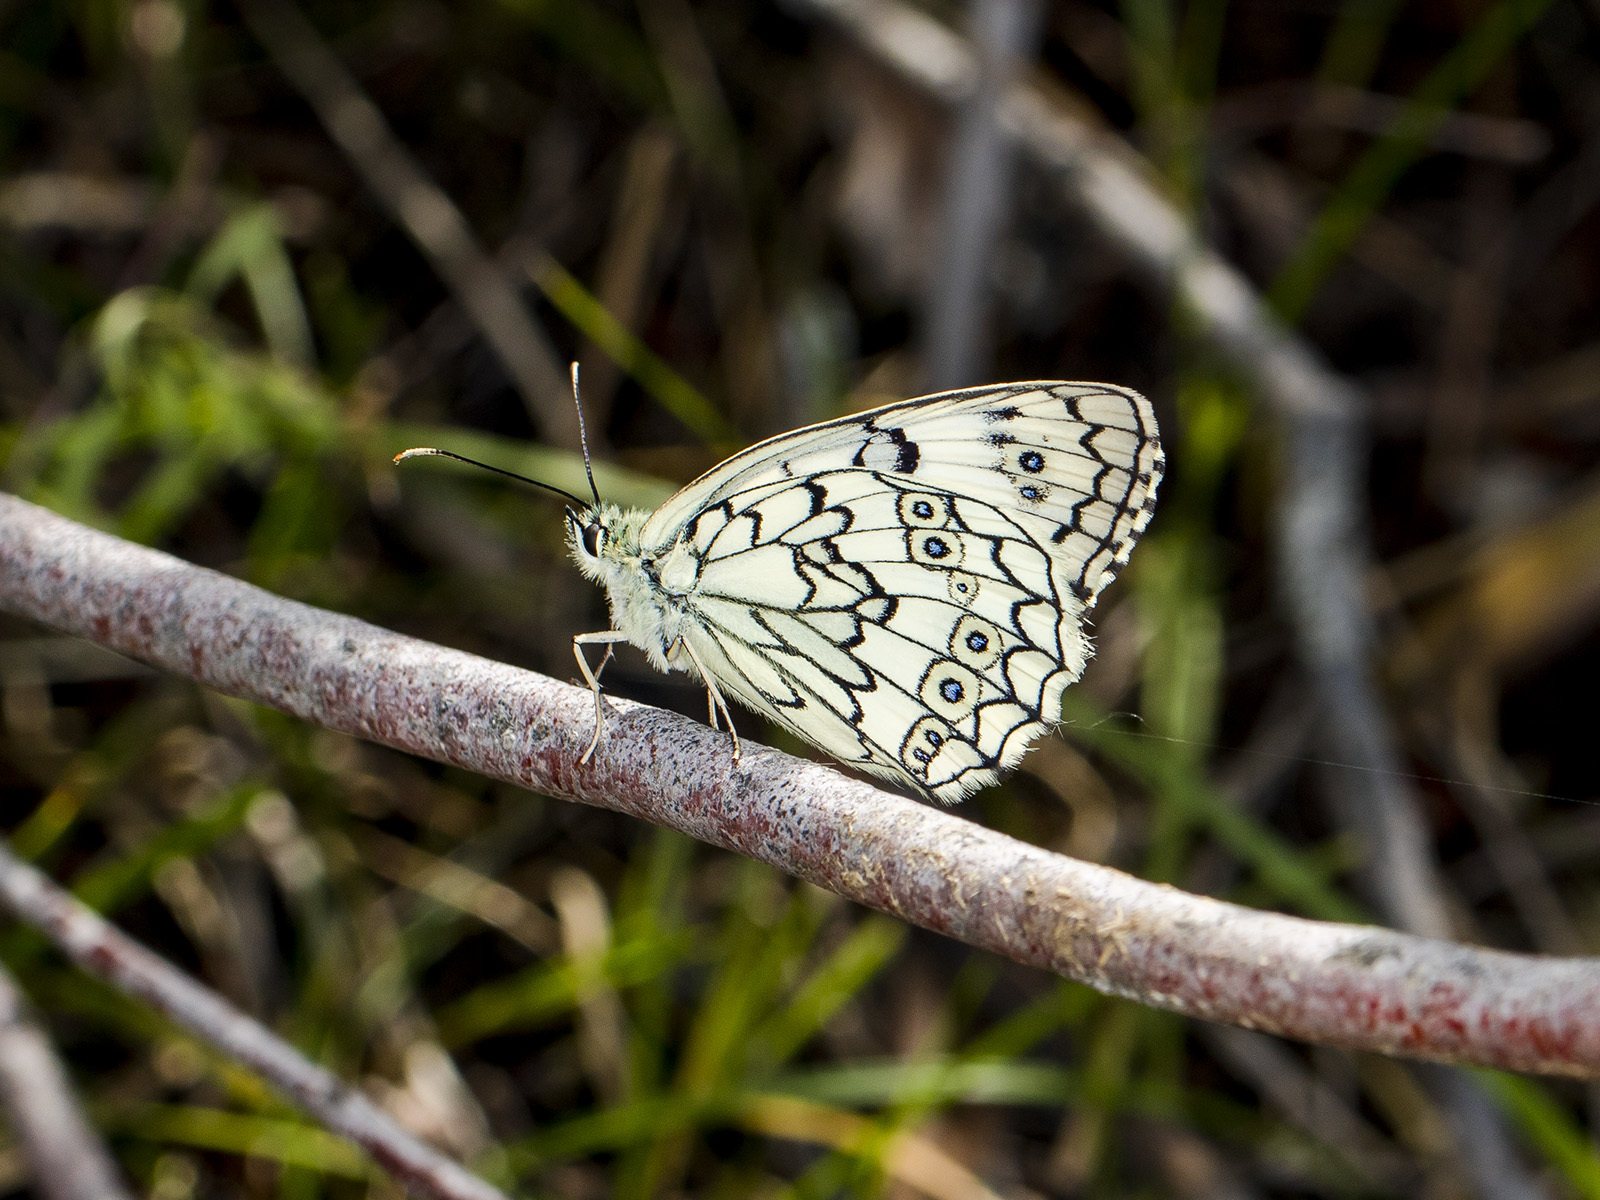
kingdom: Animalia
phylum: Arthropoda
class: Insecta
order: Lepidoptera
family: Nymphalidae
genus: Melanargia
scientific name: Melanargia parce
